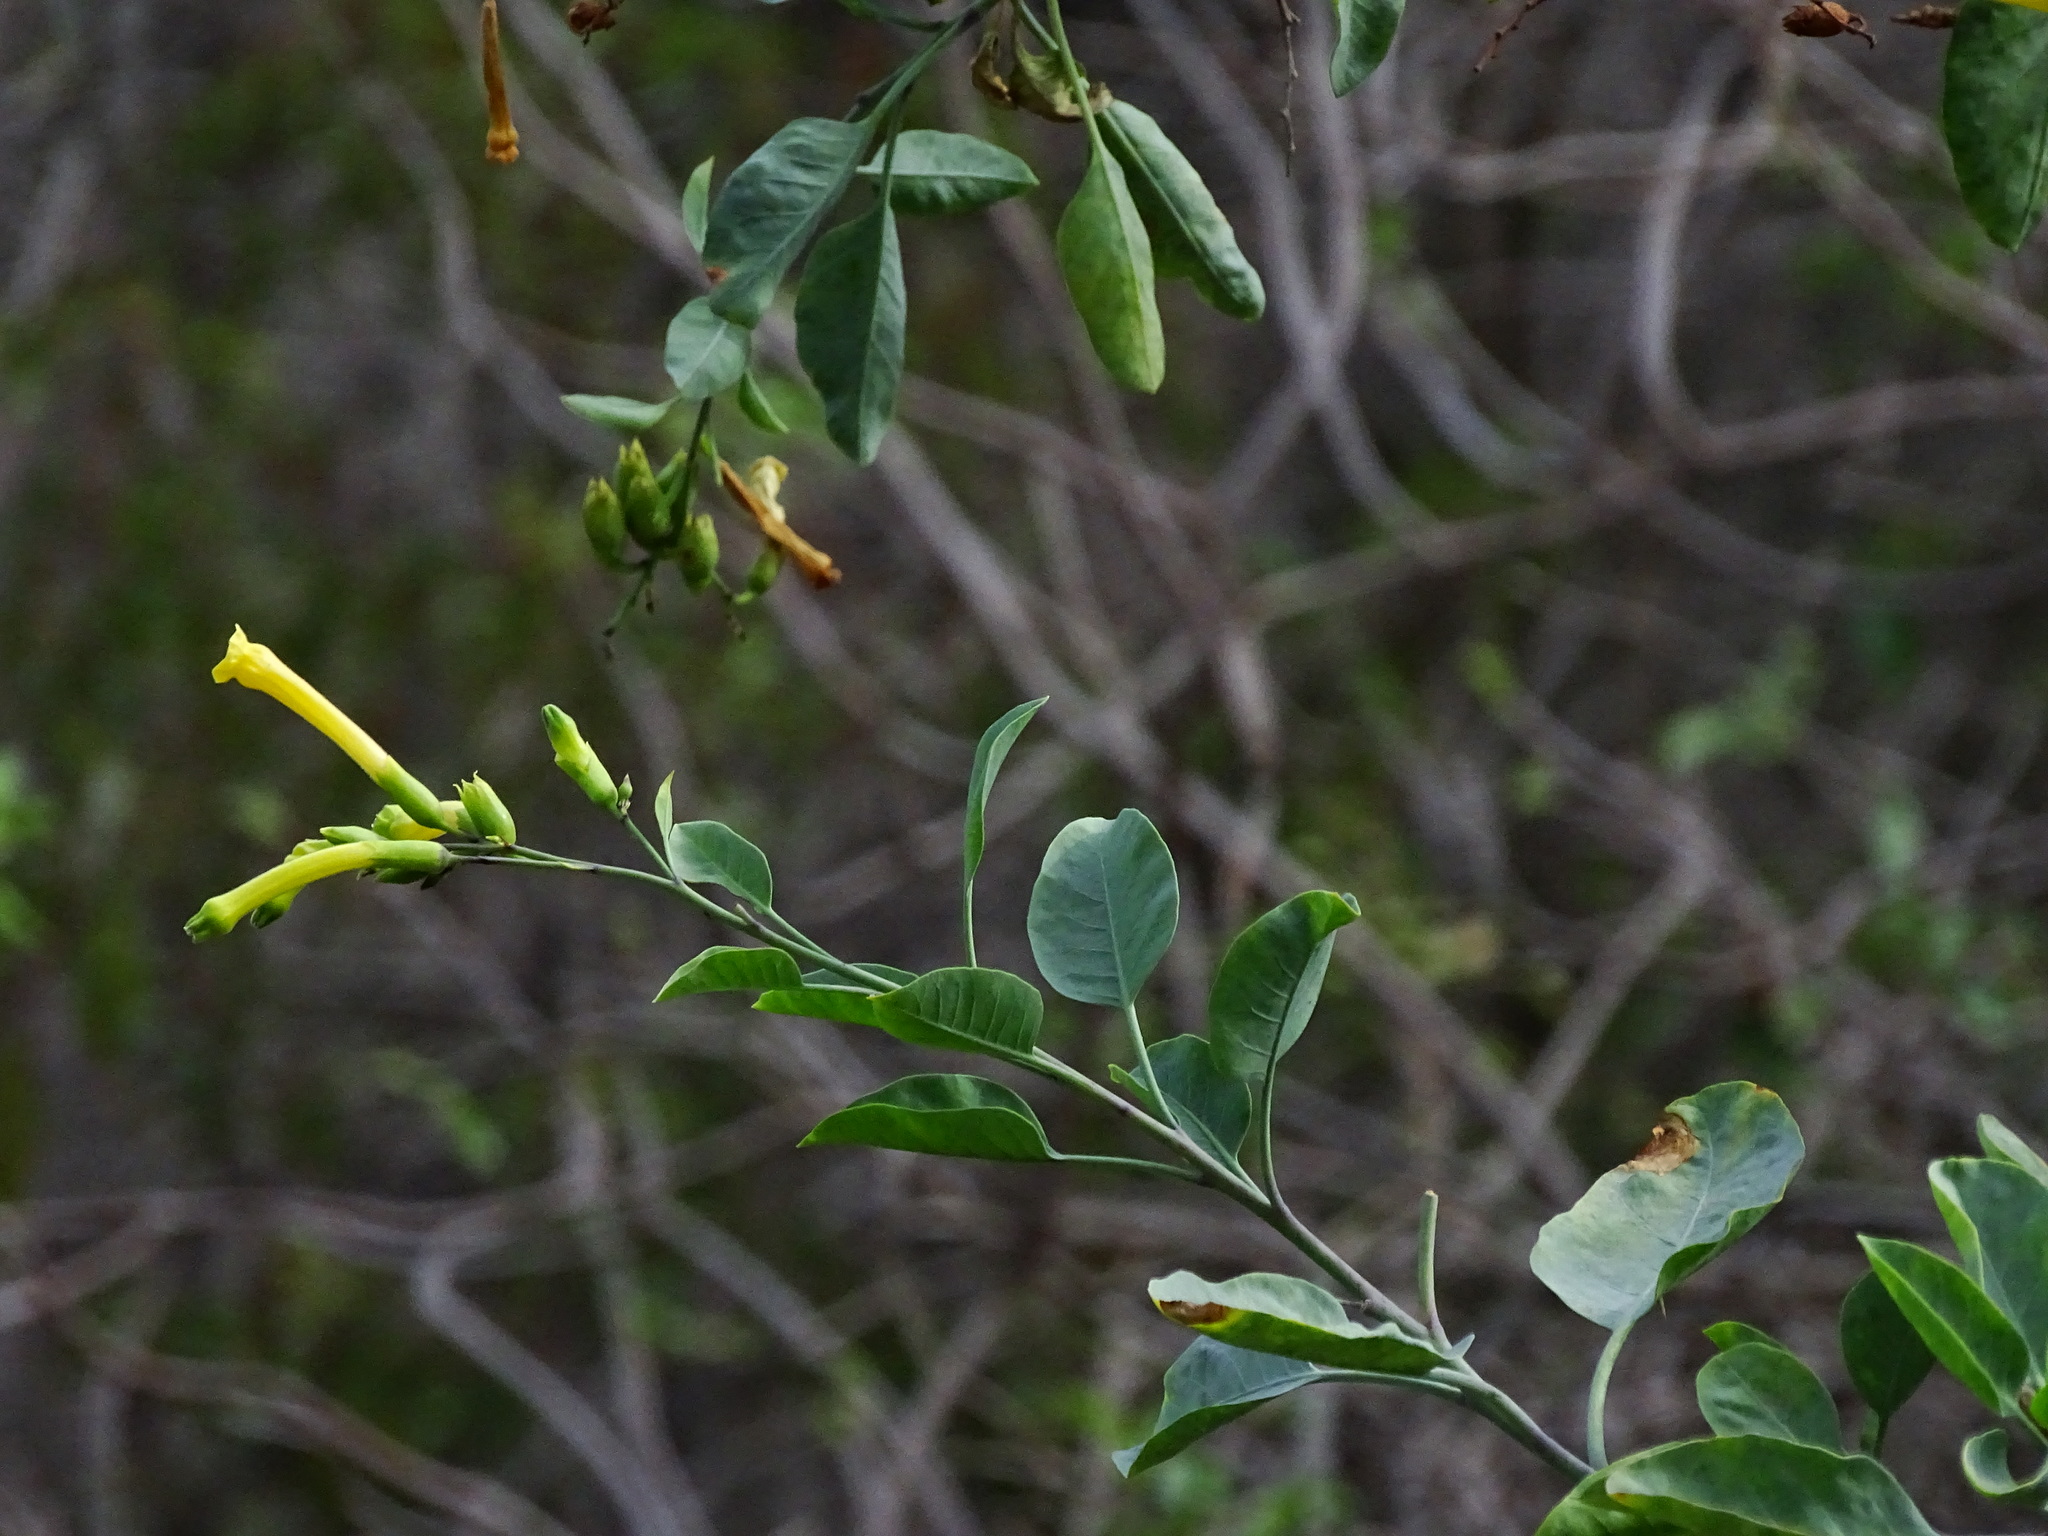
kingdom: Plantae
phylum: Tracheophyta
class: Magnoliopsida
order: Solanales
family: Solanaceae
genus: Nicotiana
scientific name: Nicotiana glauca
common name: Tree tobacco
